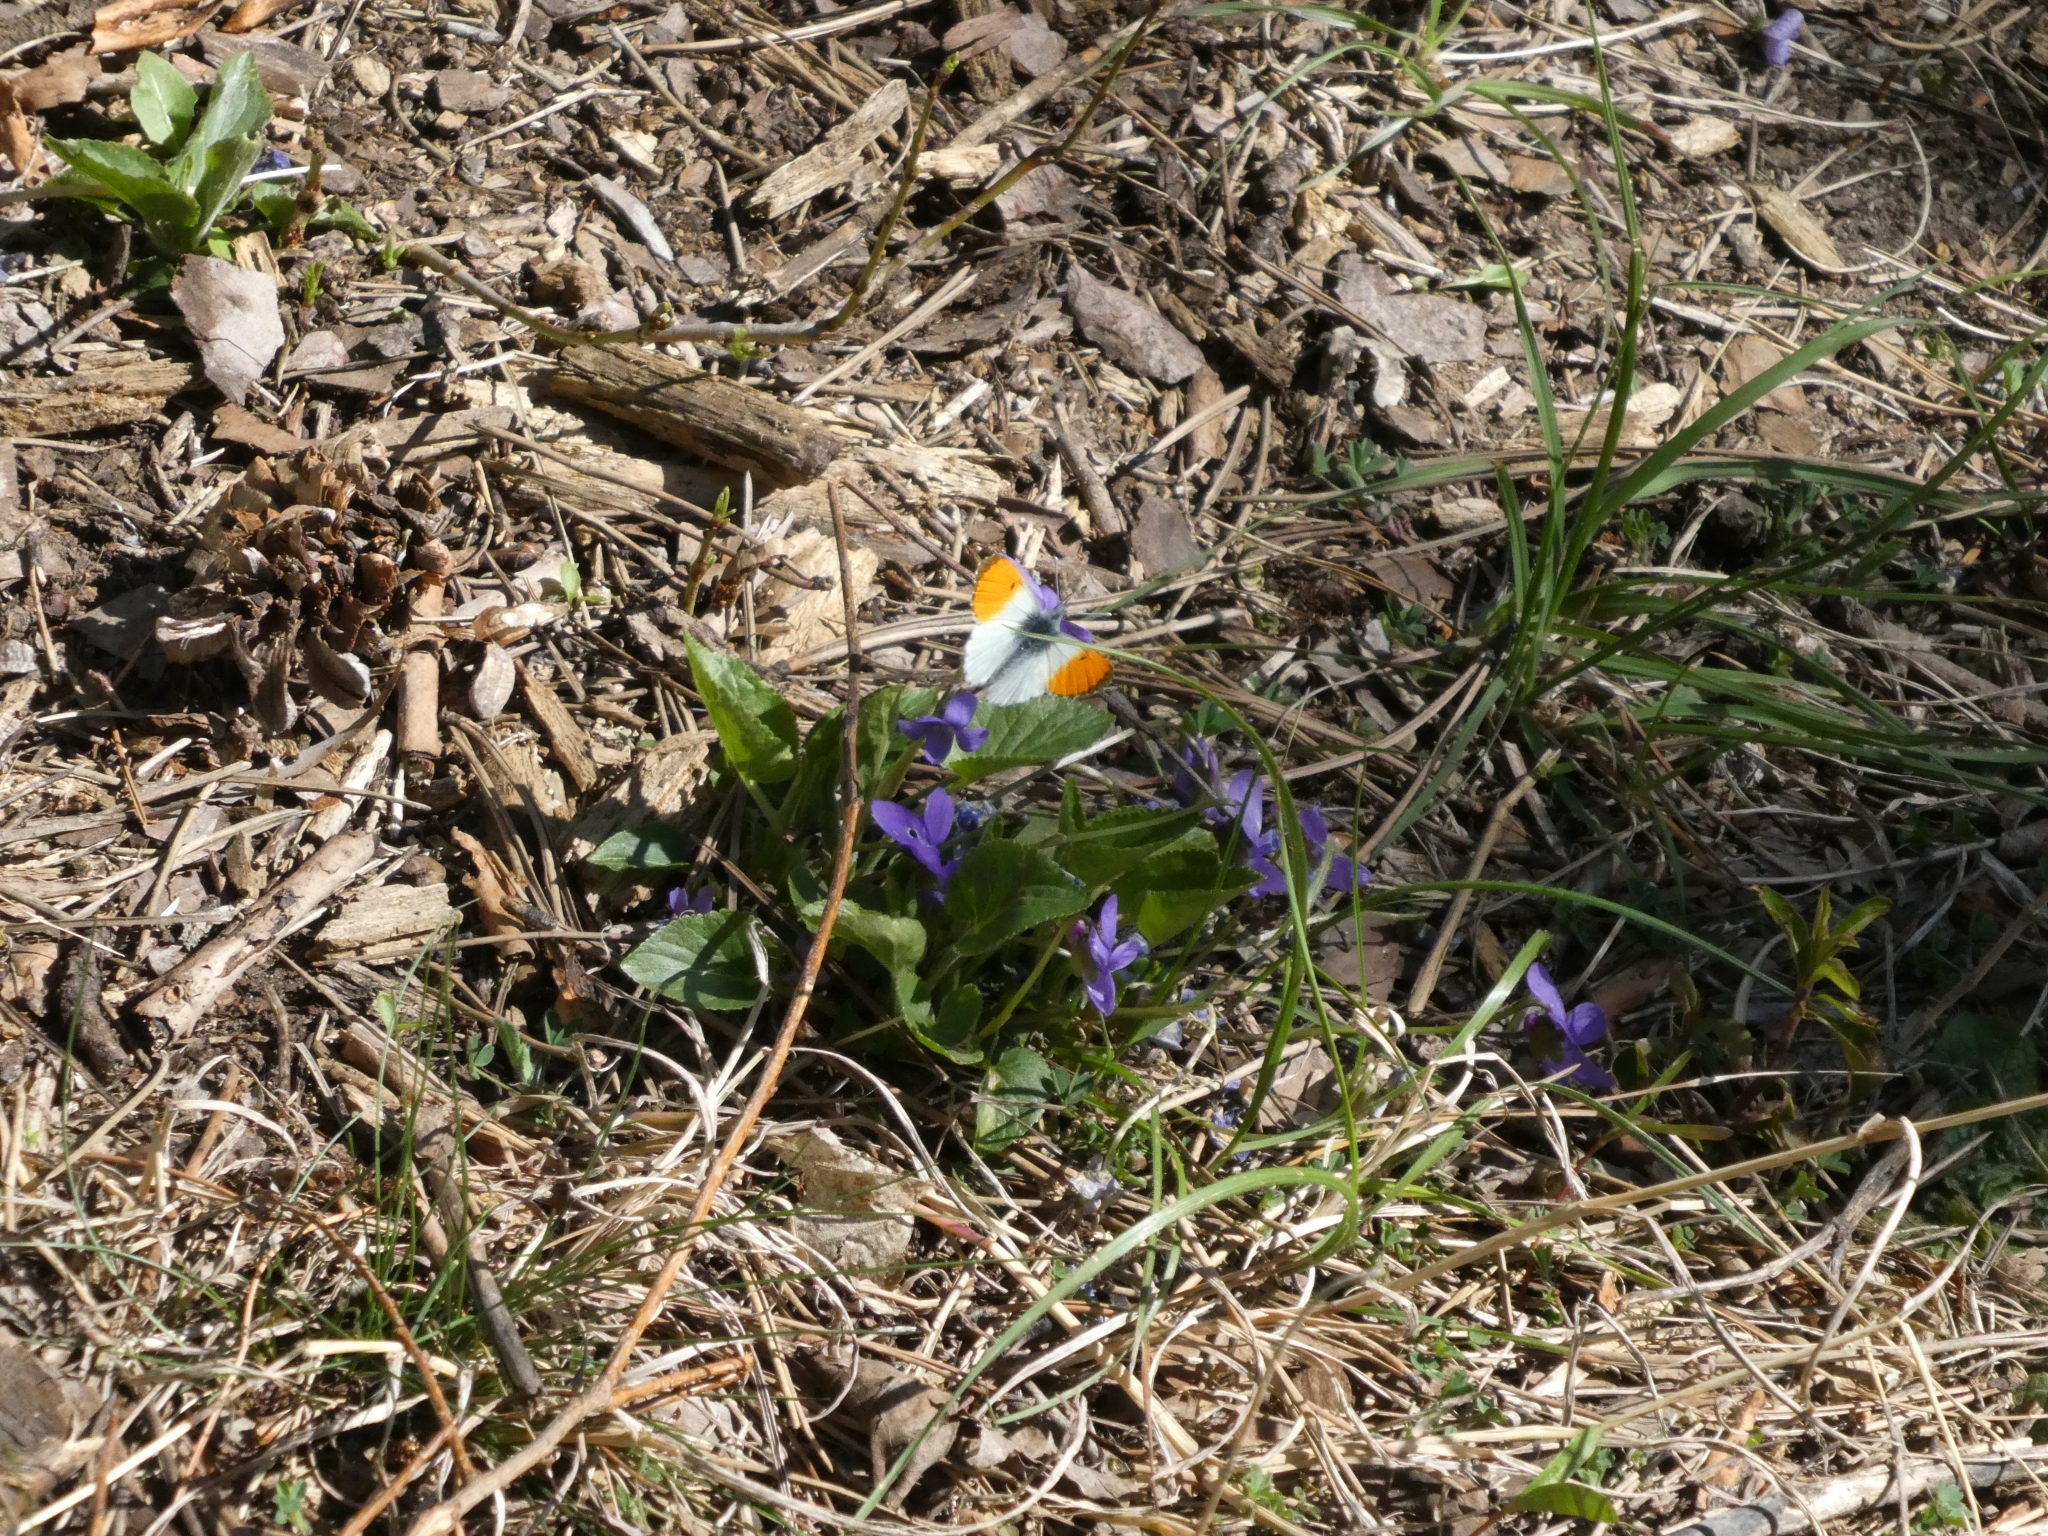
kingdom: Animalia
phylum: Arthropoda
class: Insecta
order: Lepidoptera
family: Pieridae
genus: Anthocharis
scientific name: Anthocharis cardamines
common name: Orange-tip
